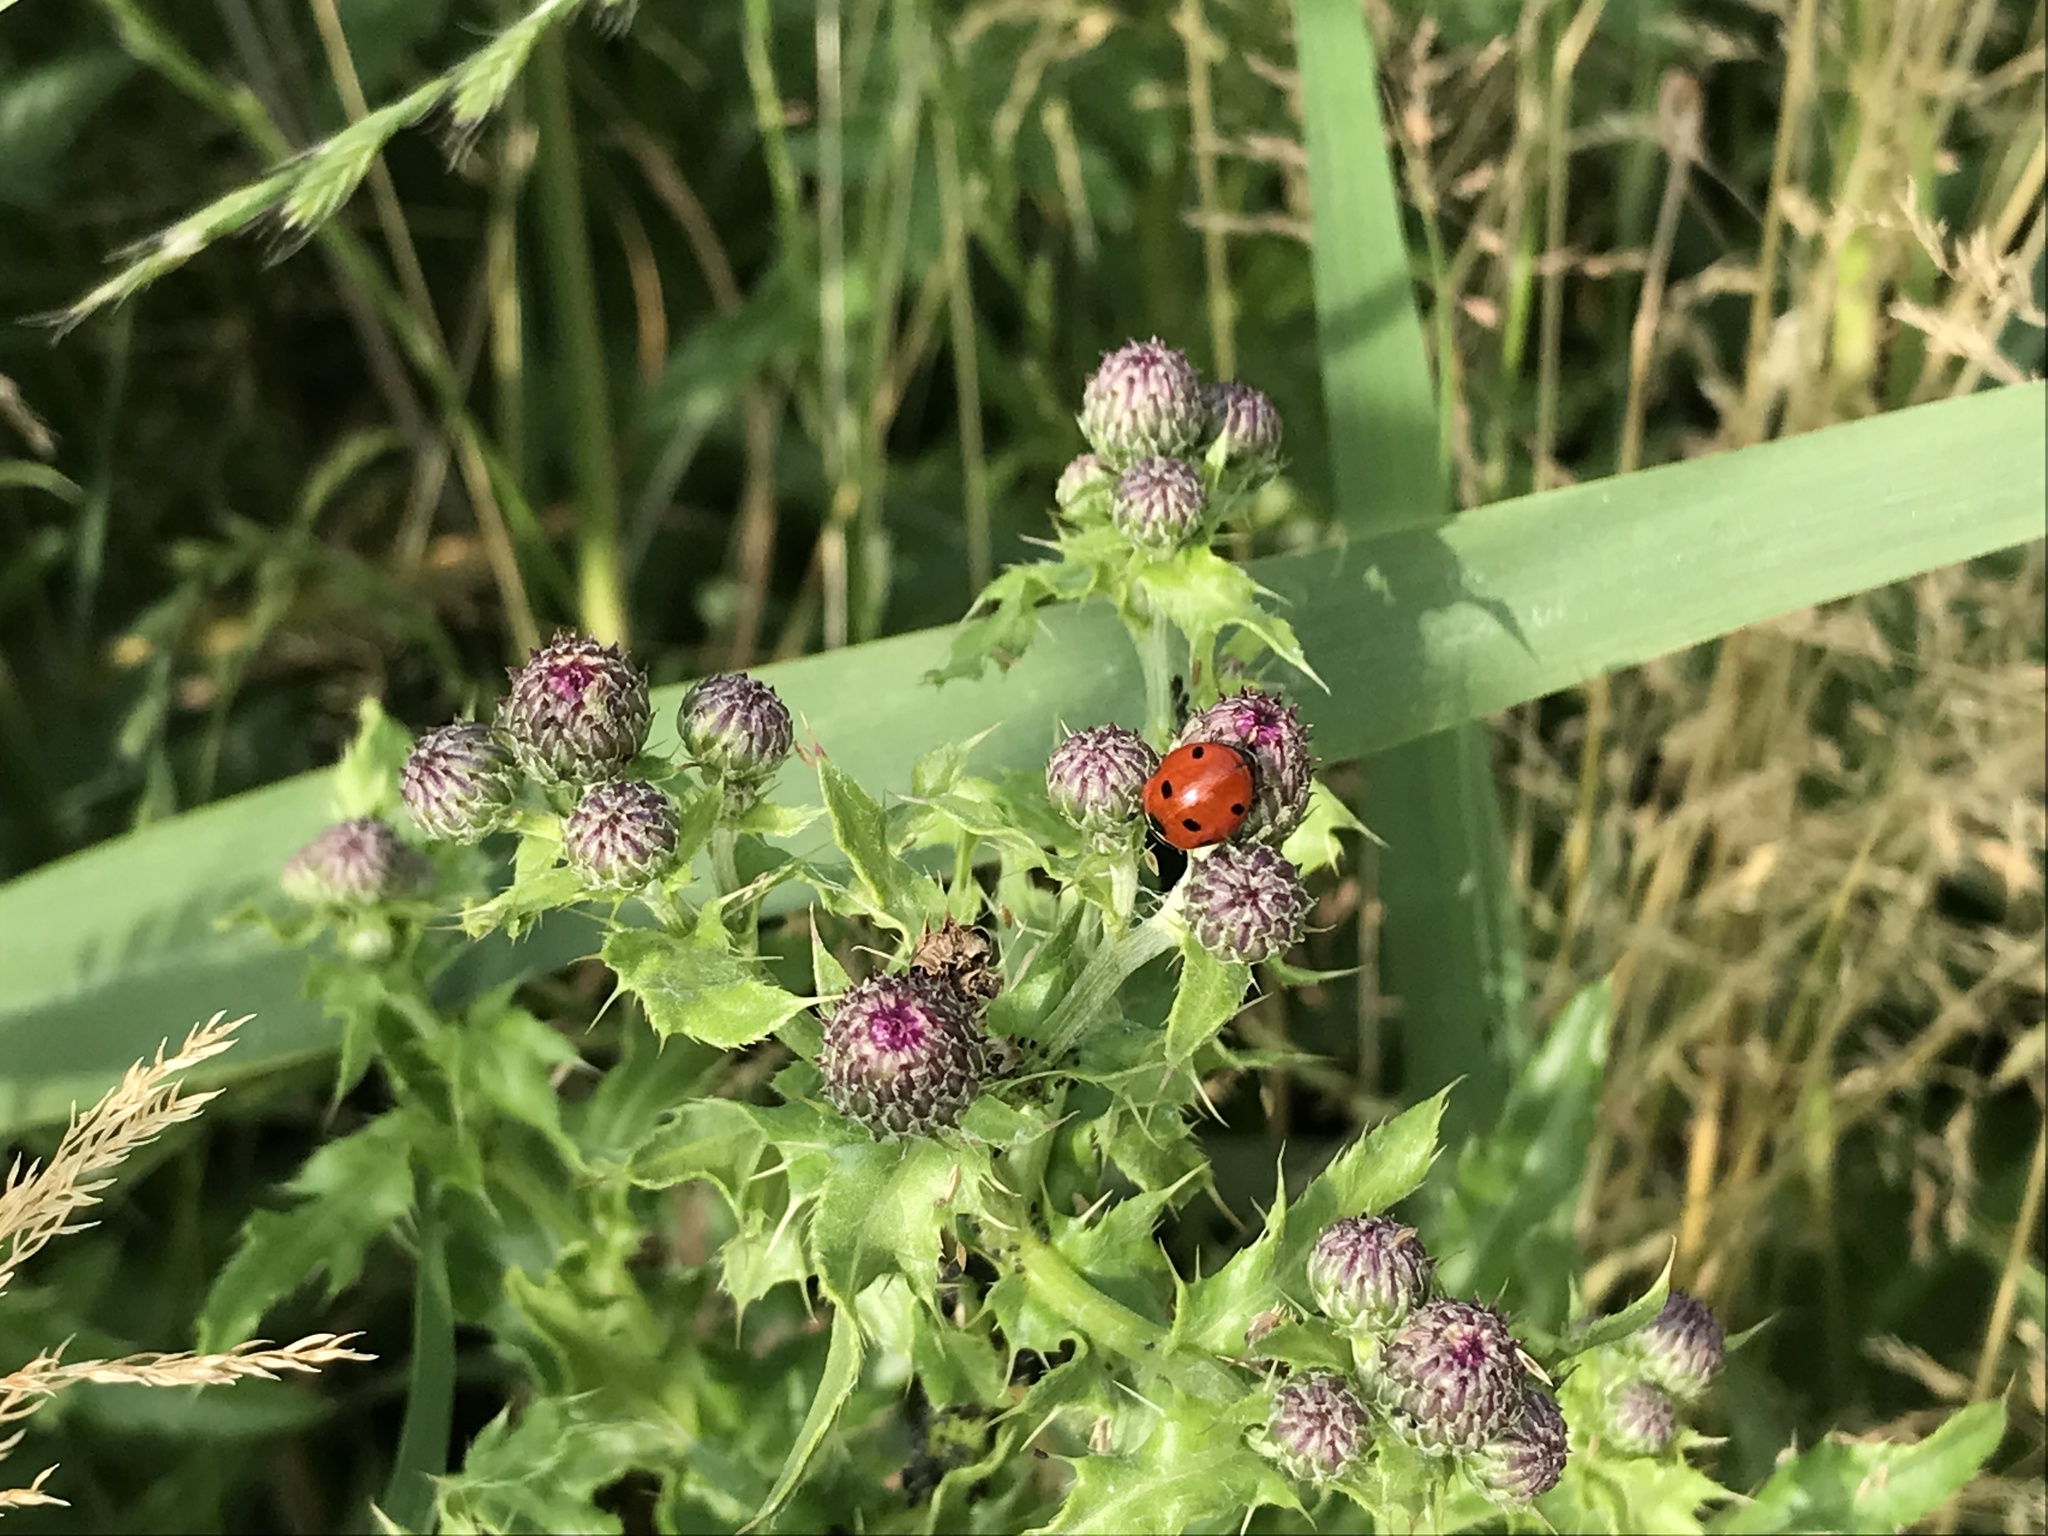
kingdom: Animalia
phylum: Arthropoda
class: Insecta
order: Coleoptera
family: Coccinellidae
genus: Coccinella
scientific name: Coccinella septempunctata
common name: Sevenspotted lady beetle
